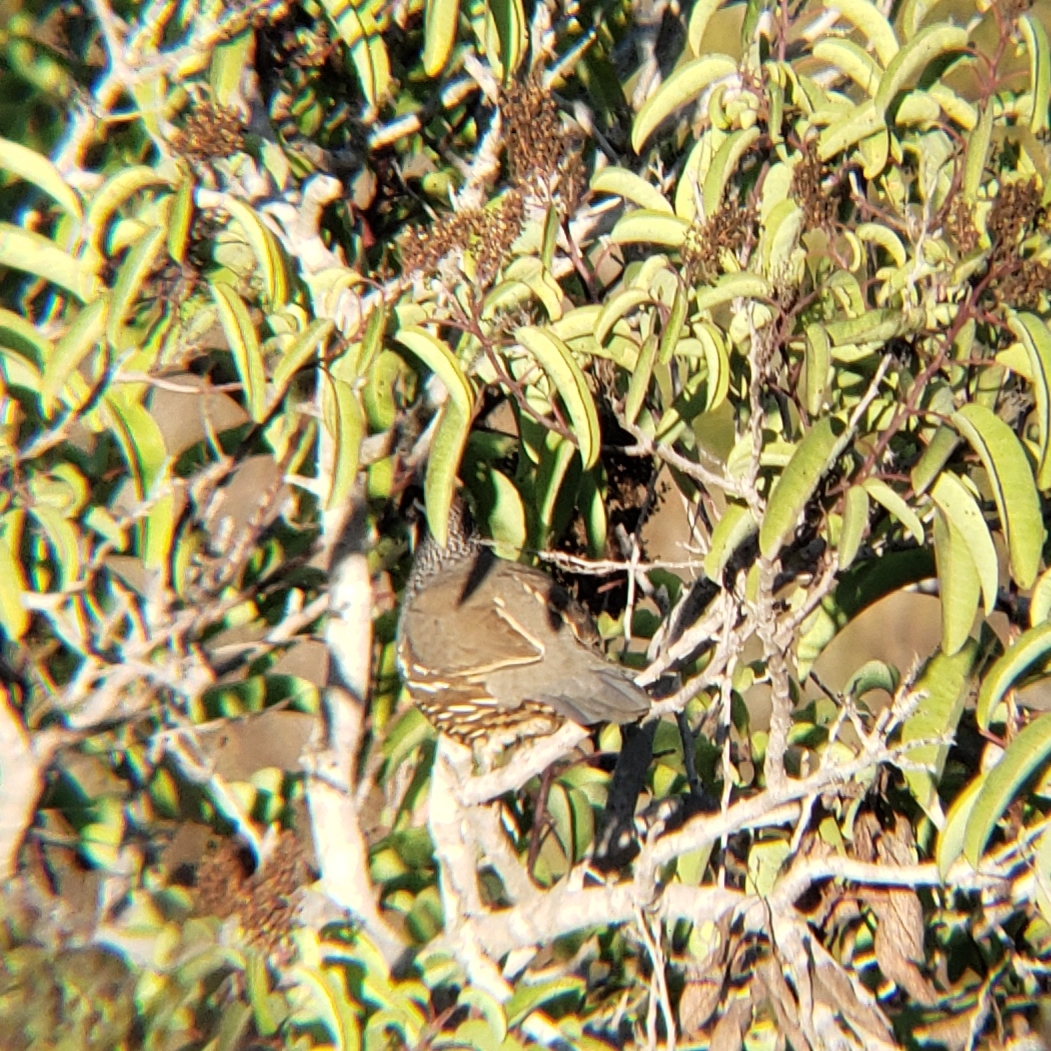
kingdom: Animalia
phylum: Chordata
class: Aves
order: Galliformes
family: Odontophoridae
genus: Callipepla
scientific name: Callipepla californica
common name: California quail
